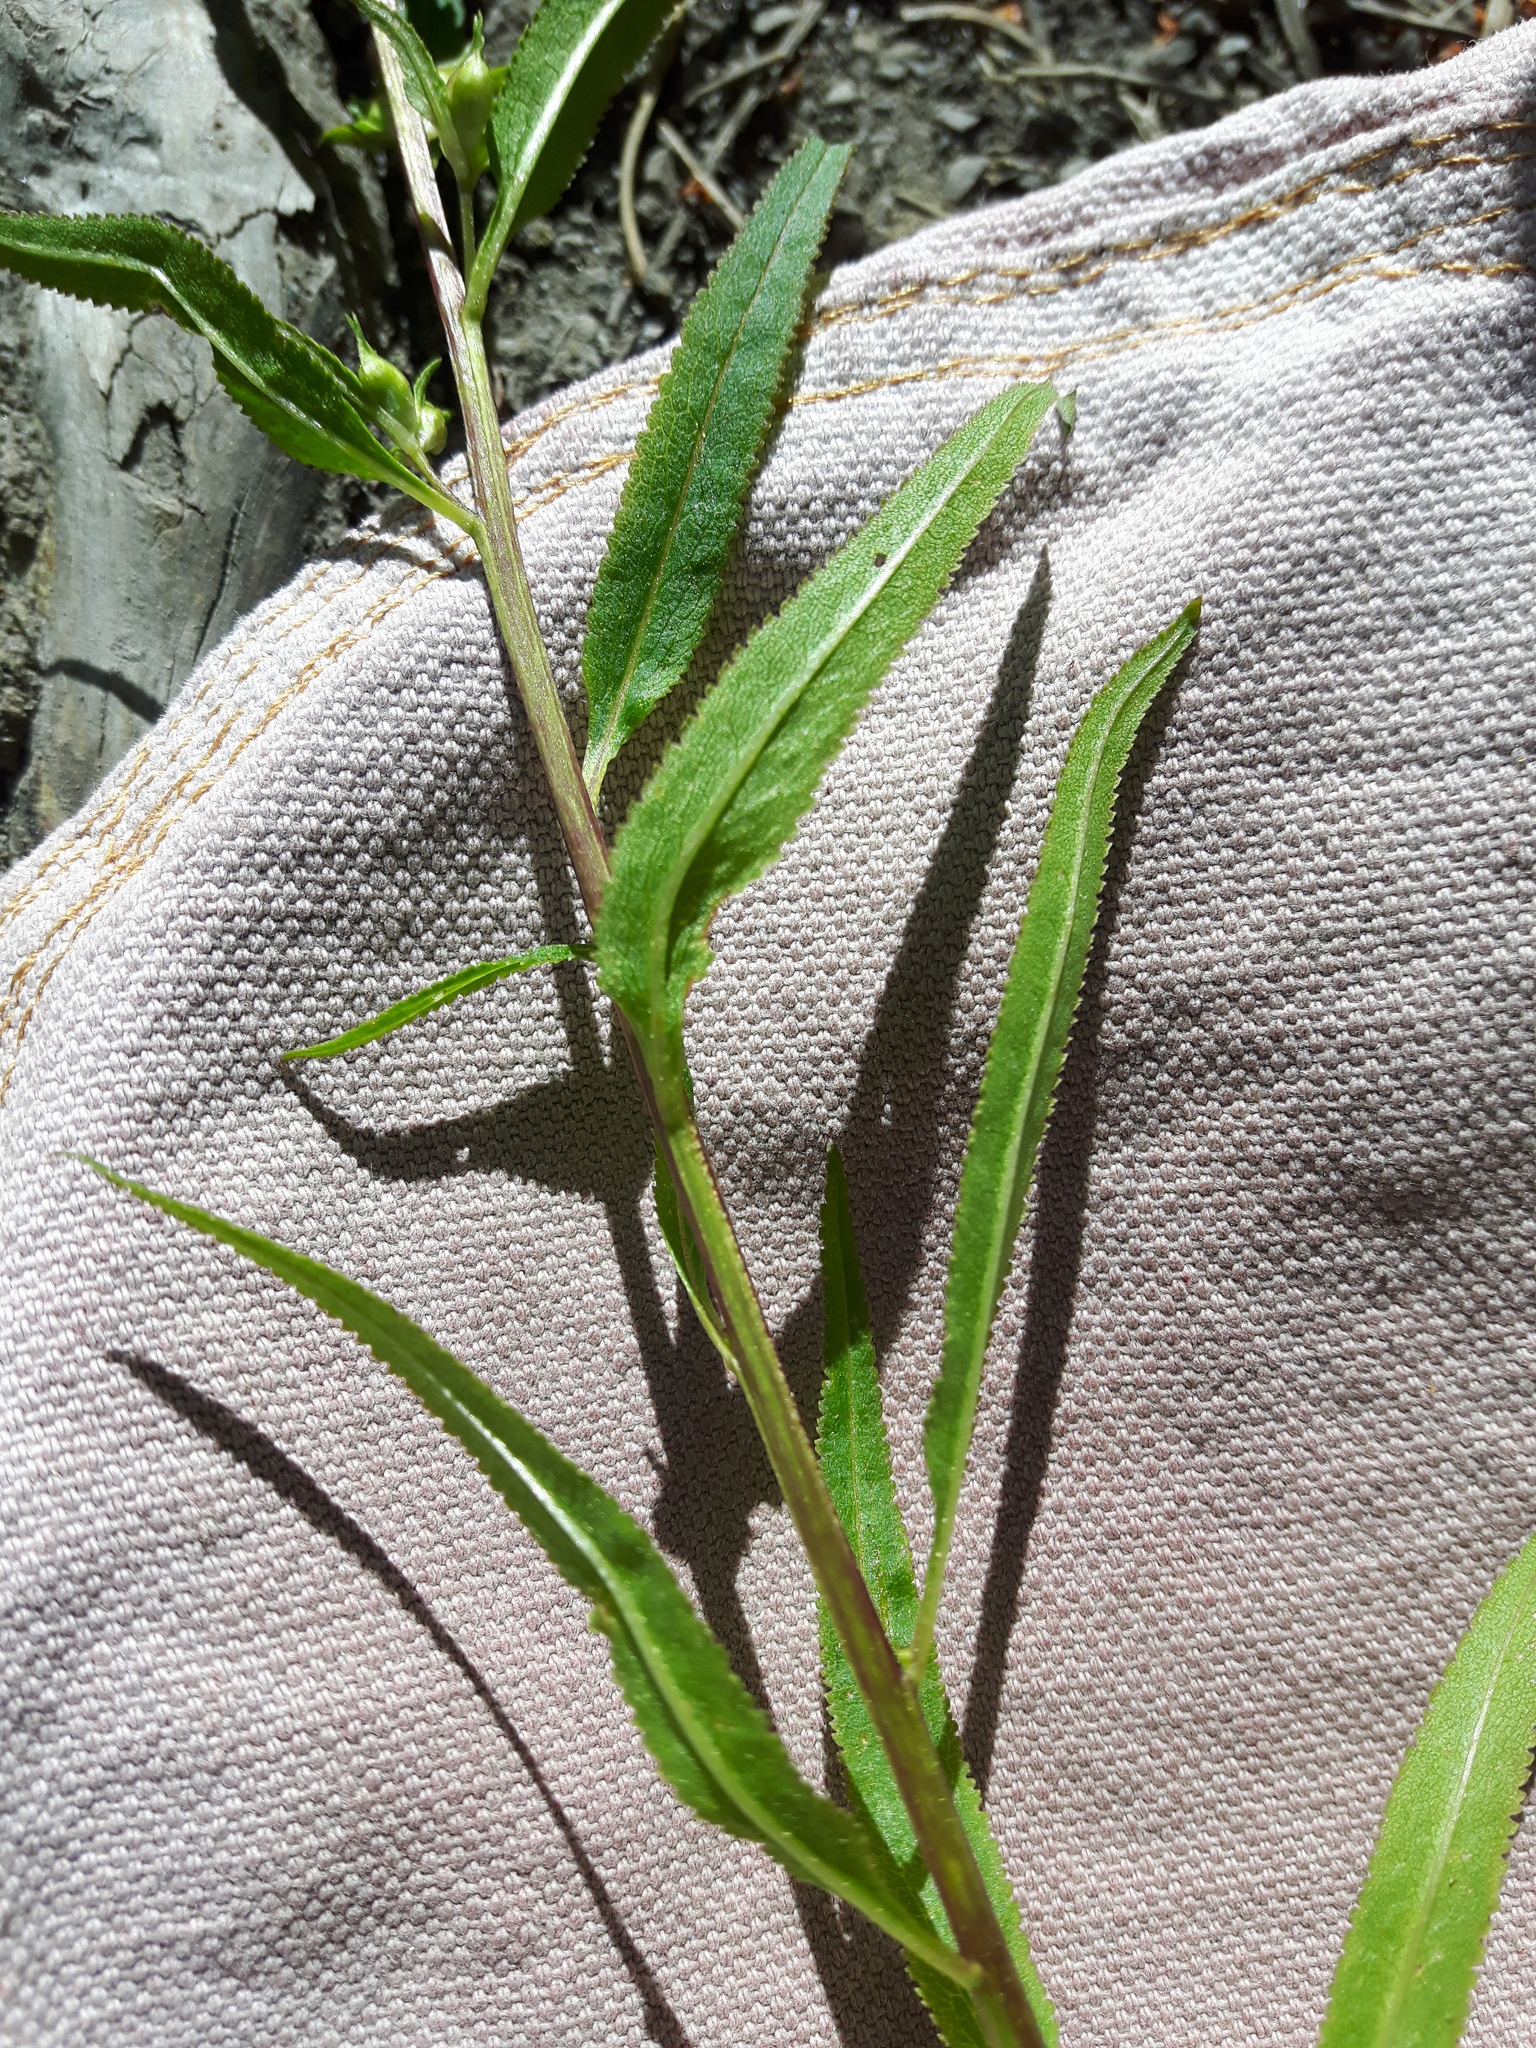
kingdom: Plantae
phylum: Tracheophyta
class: Magnoliopsida
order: Lamiales
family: Orobanchaceae
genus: Pedicularis
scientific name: Pedicularis racemosa
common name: Leafy lousewort
